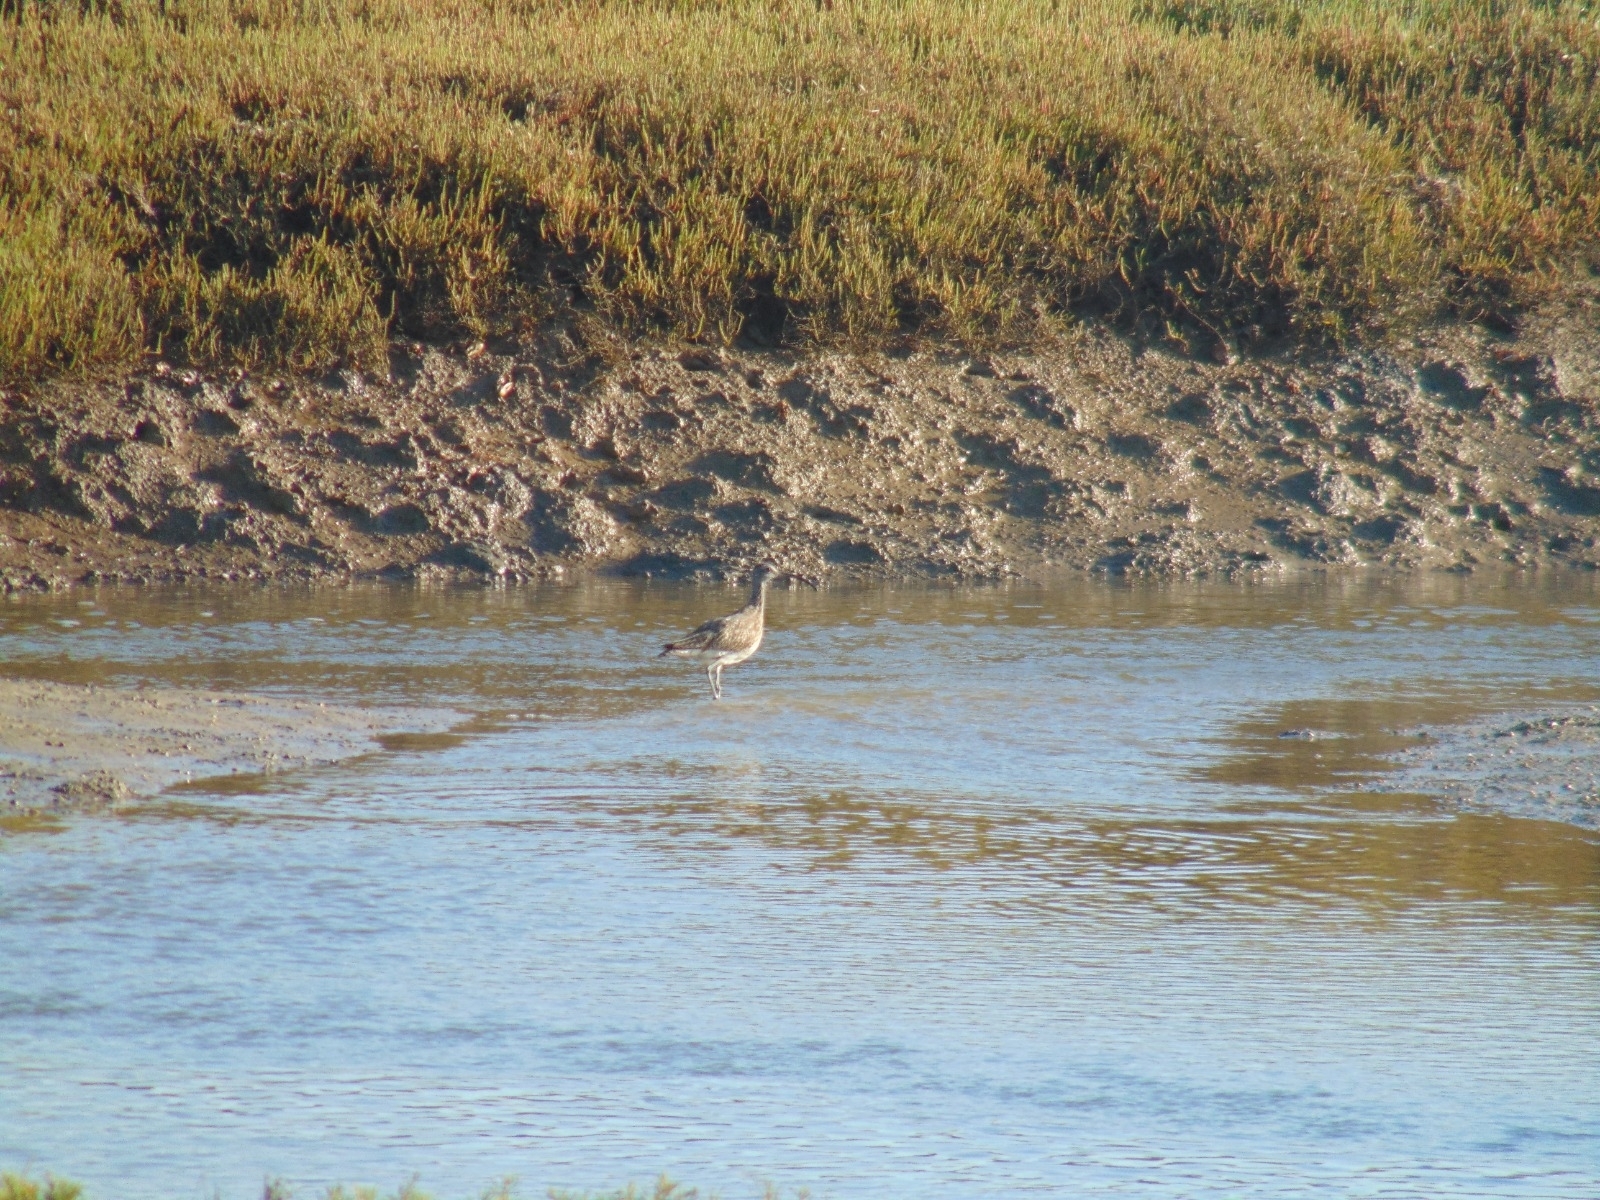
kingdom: Animalia
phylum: Chordata
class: Aves
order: Charadriiformes
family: Scolopacidae
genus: Numenius
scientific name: Numenius phaeopus
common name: Whimbrel
